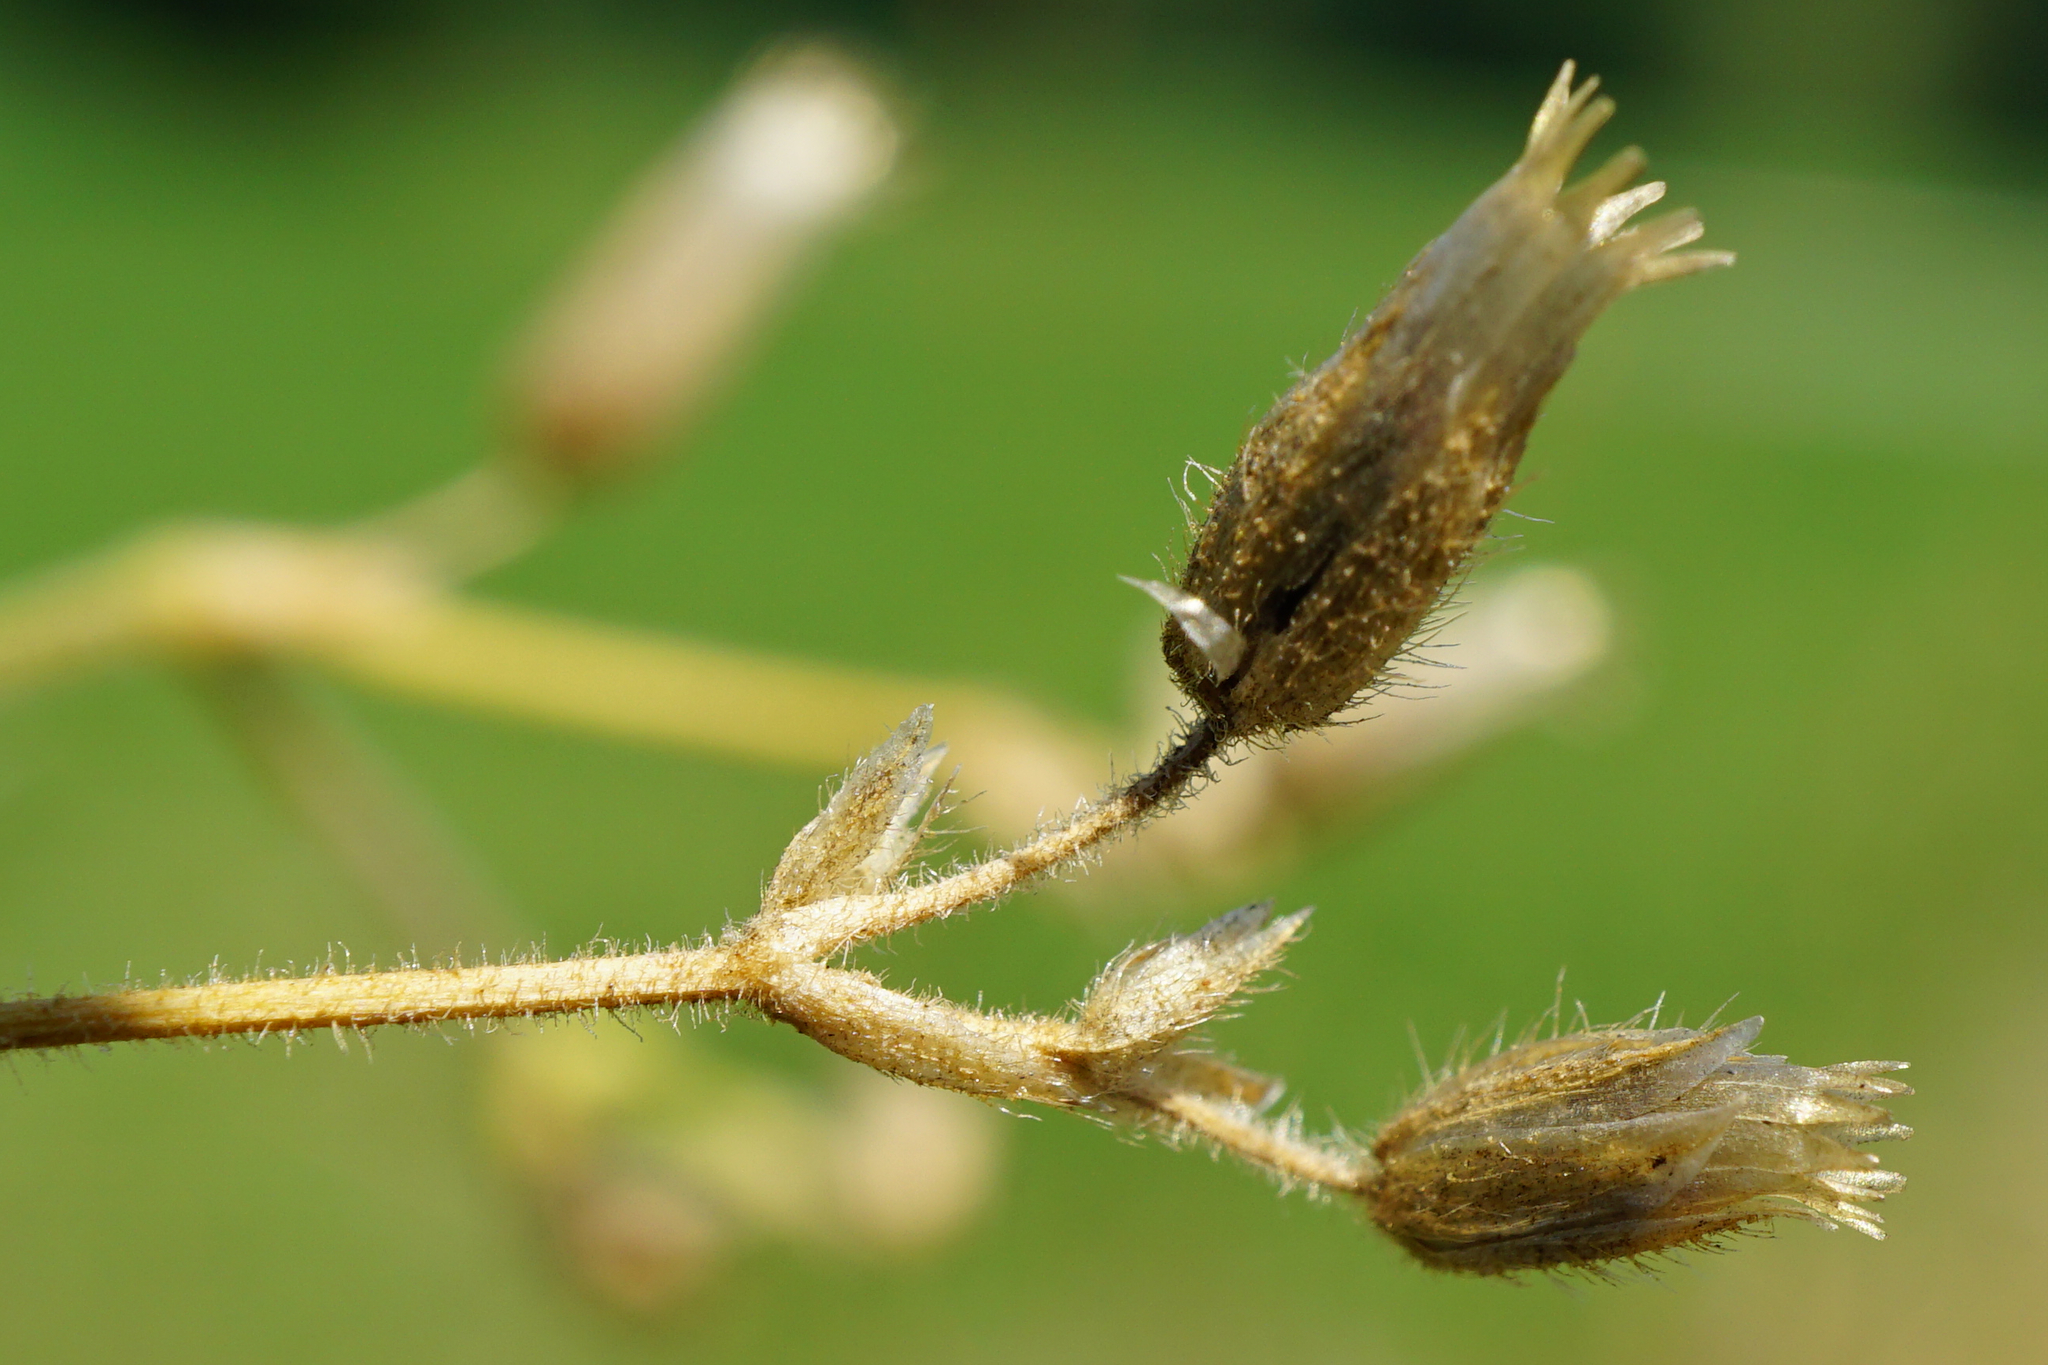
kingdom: Plantae
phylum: Tracheophyta
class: Magnoliopsida
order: Caryophyllales
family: Caryophyllaceae
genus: Cerastium
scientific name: Cerastium holosteoides
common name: Big chickweed
